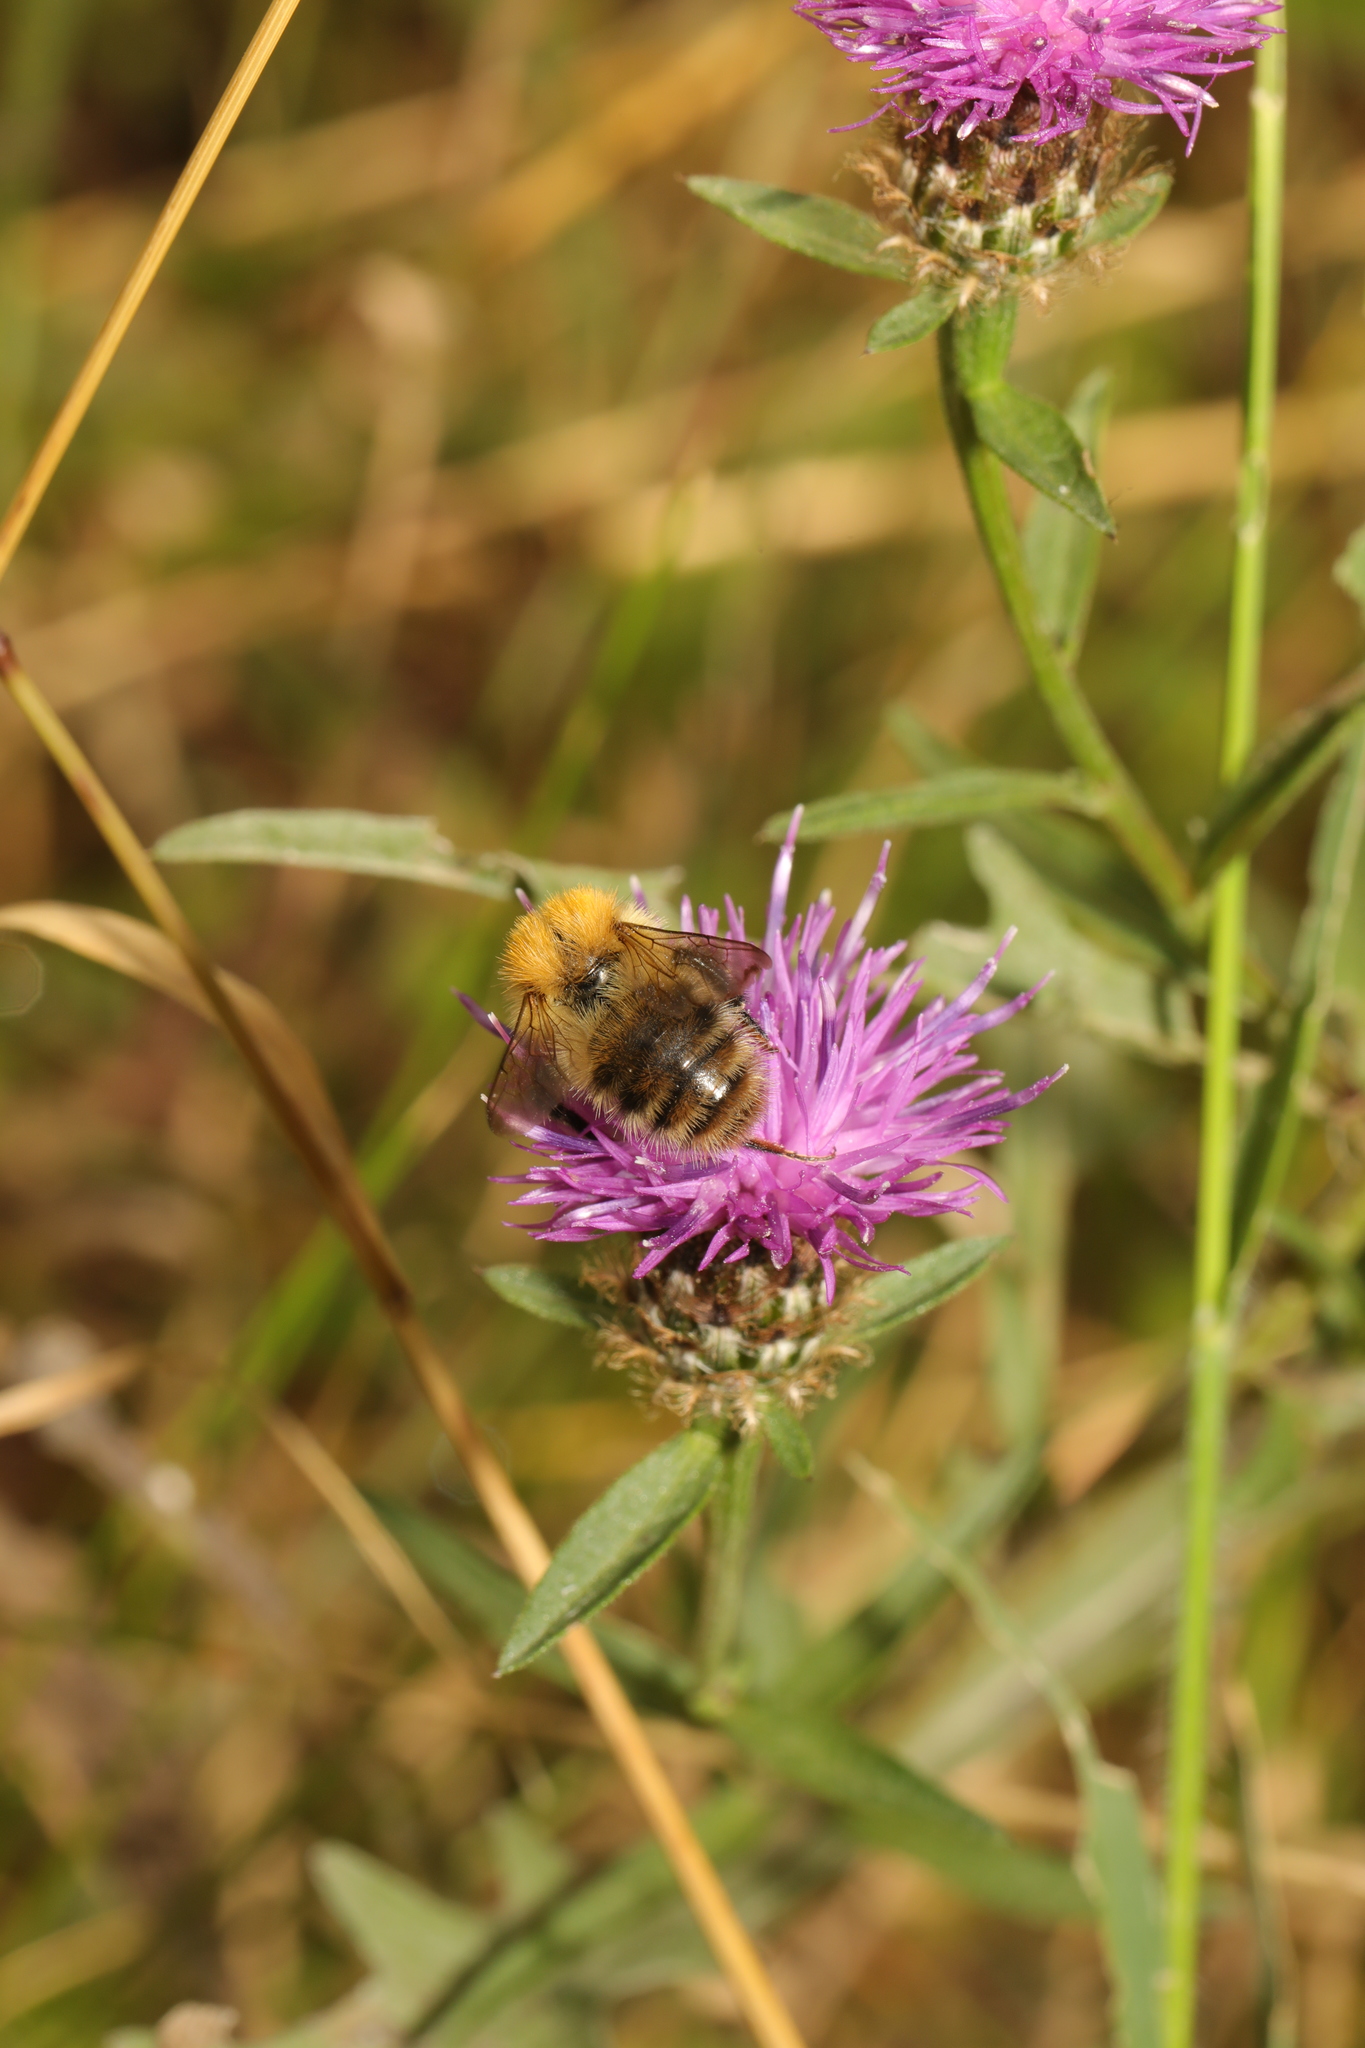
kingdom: Animalia
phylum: Arthropoda
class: Insecta
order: Hymenoptera
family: Apidae
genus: Bombus
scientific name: Bombus pascuorum
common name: Common carder bee
